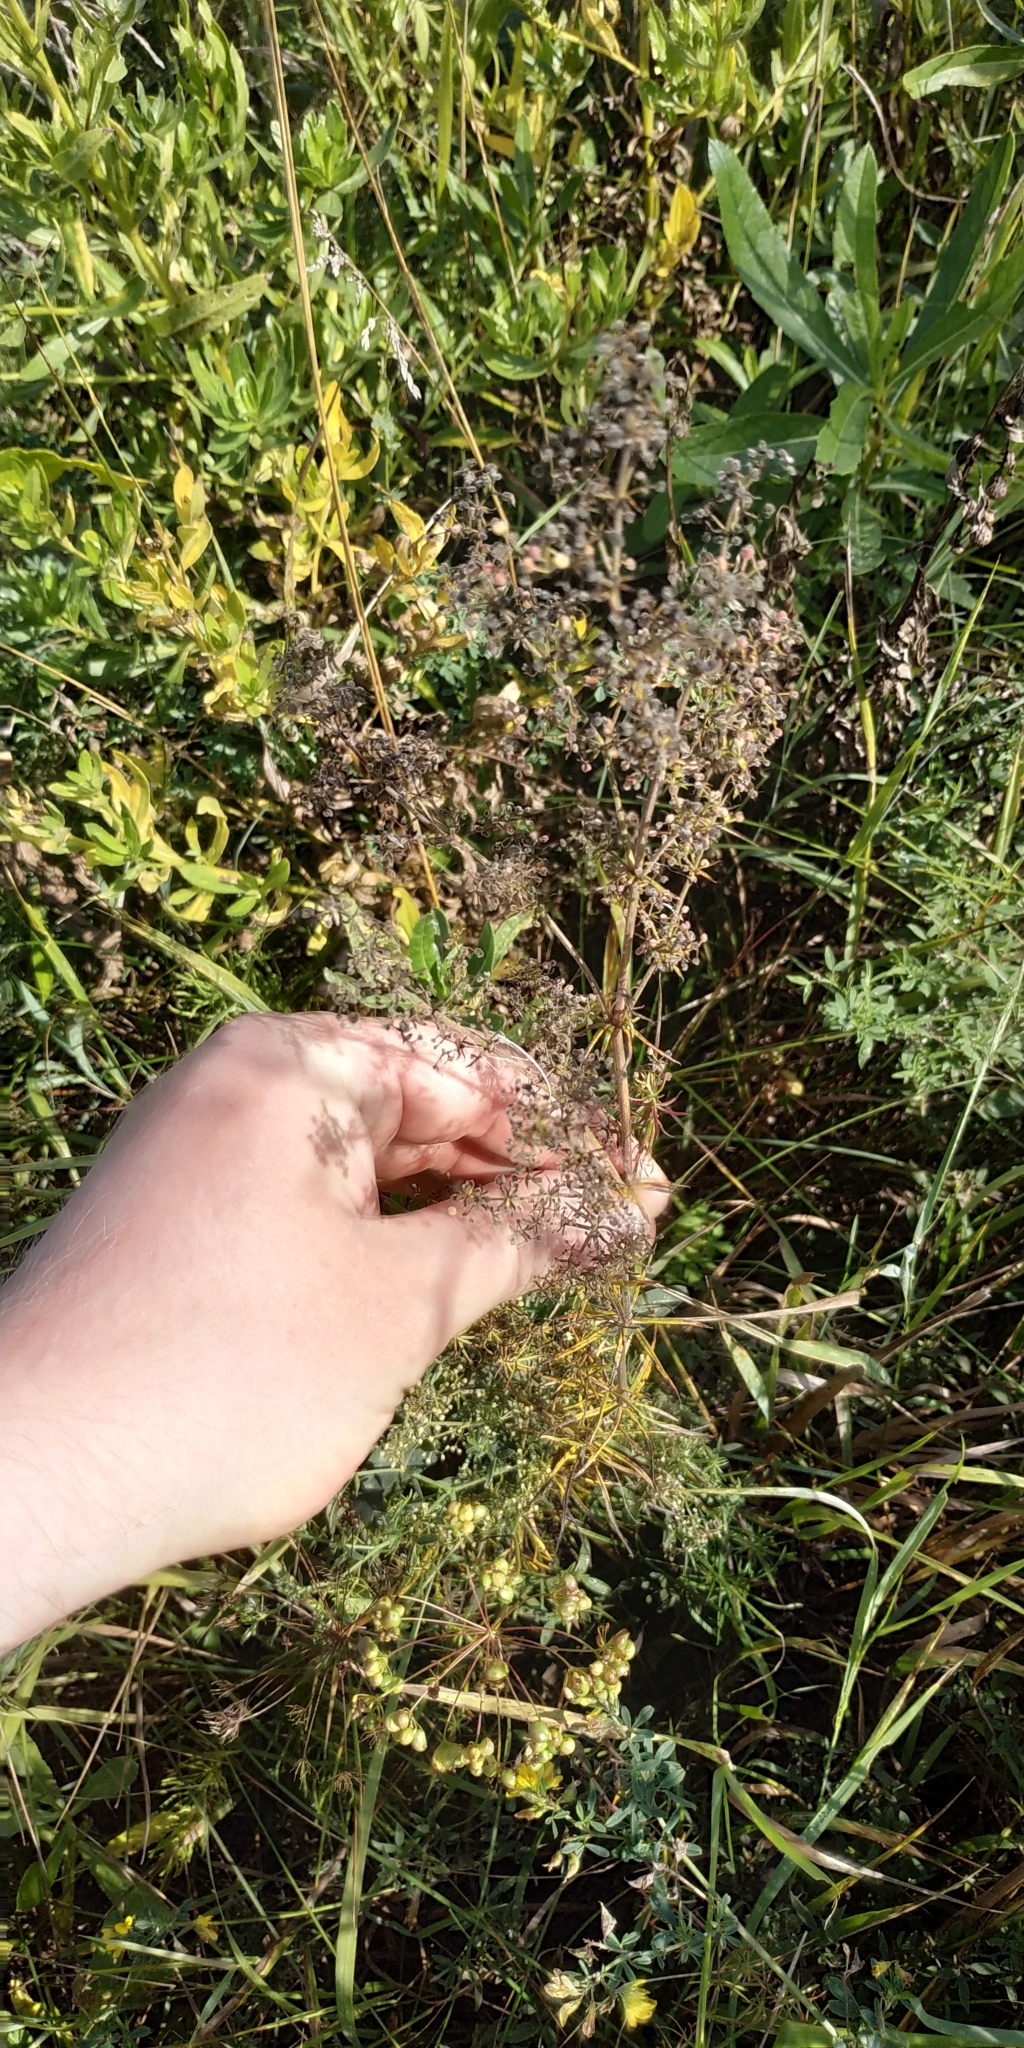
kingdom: Plantae
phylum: Tracheophyta
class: Magnoliopsida
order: Gentianales
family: Rubiaceae
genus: Galium
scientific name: Galium verum
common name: Lady's bedstraw
